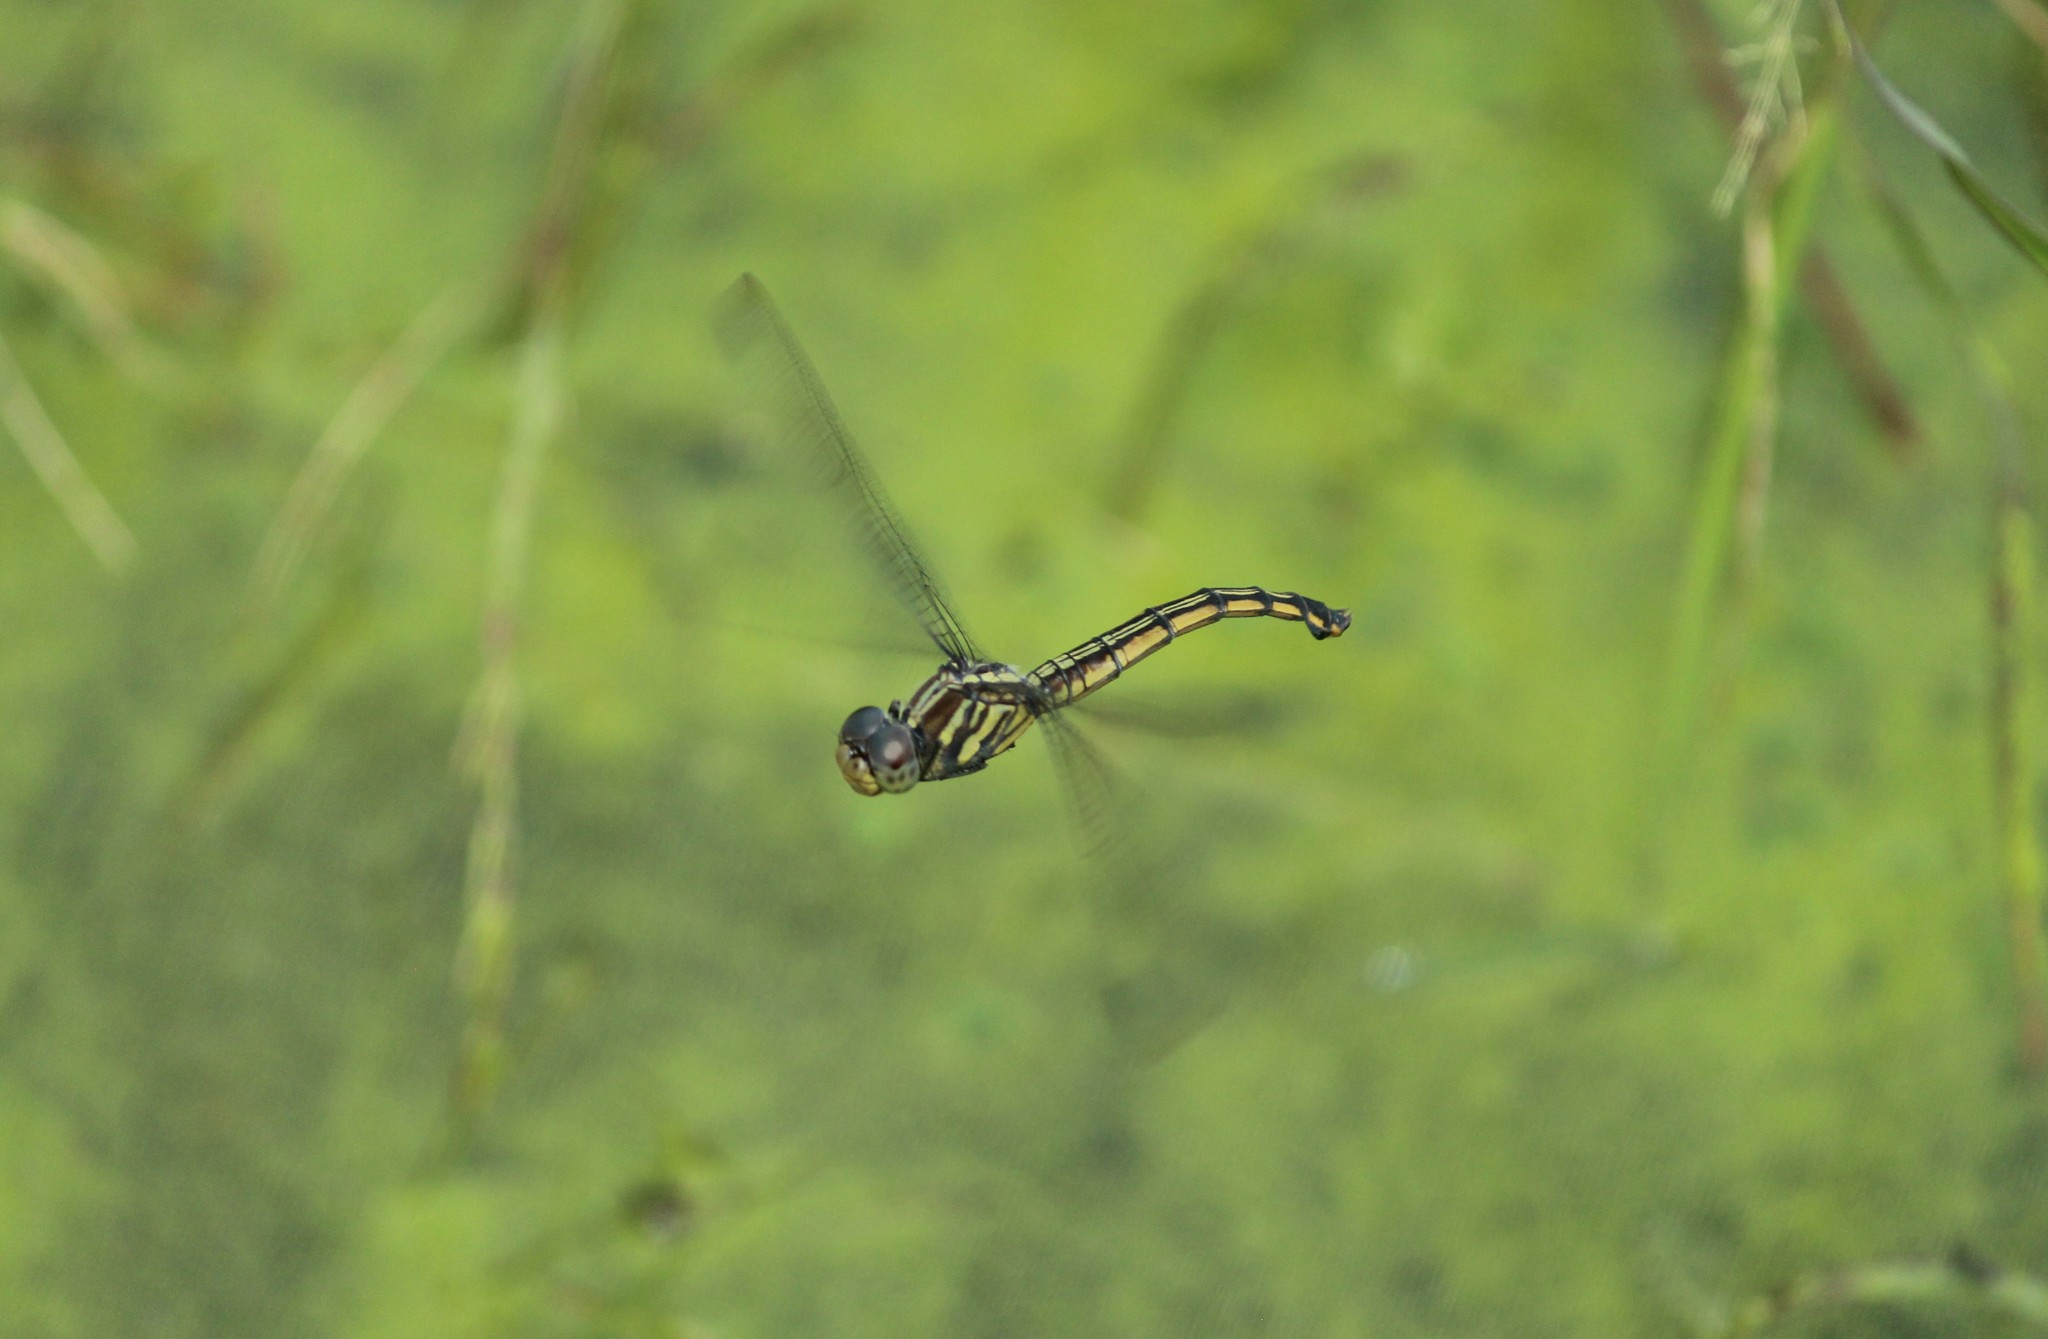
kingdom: Animalia
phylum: Arthropoda
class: Insecta
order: Odonata
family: Libellulidae
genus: Potamarcha
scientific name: Potamarcha congener
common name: Blue chaser
